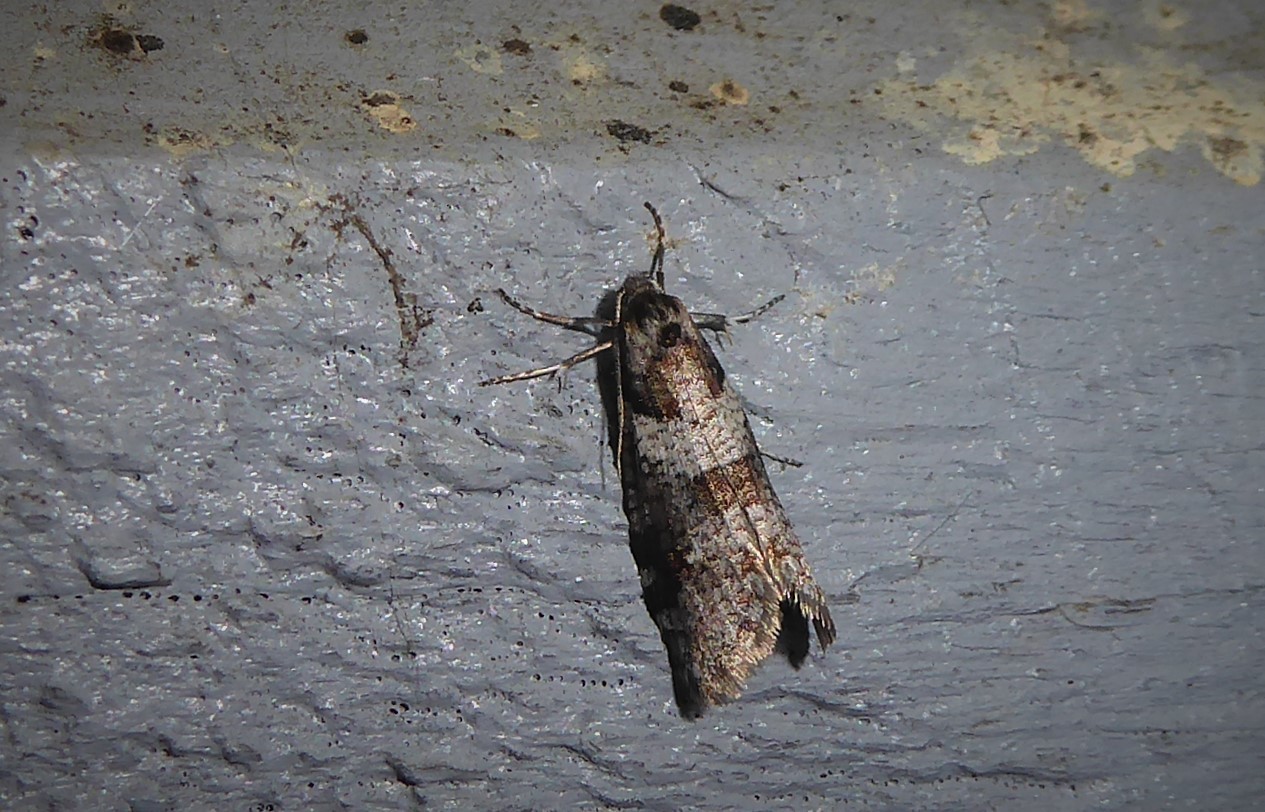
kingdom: Animalia
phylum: Arthropoda
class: Insecta
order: Lepidoptera
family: Psychidae
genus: Lepidoscia
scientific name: Lepidoscia heliochares
